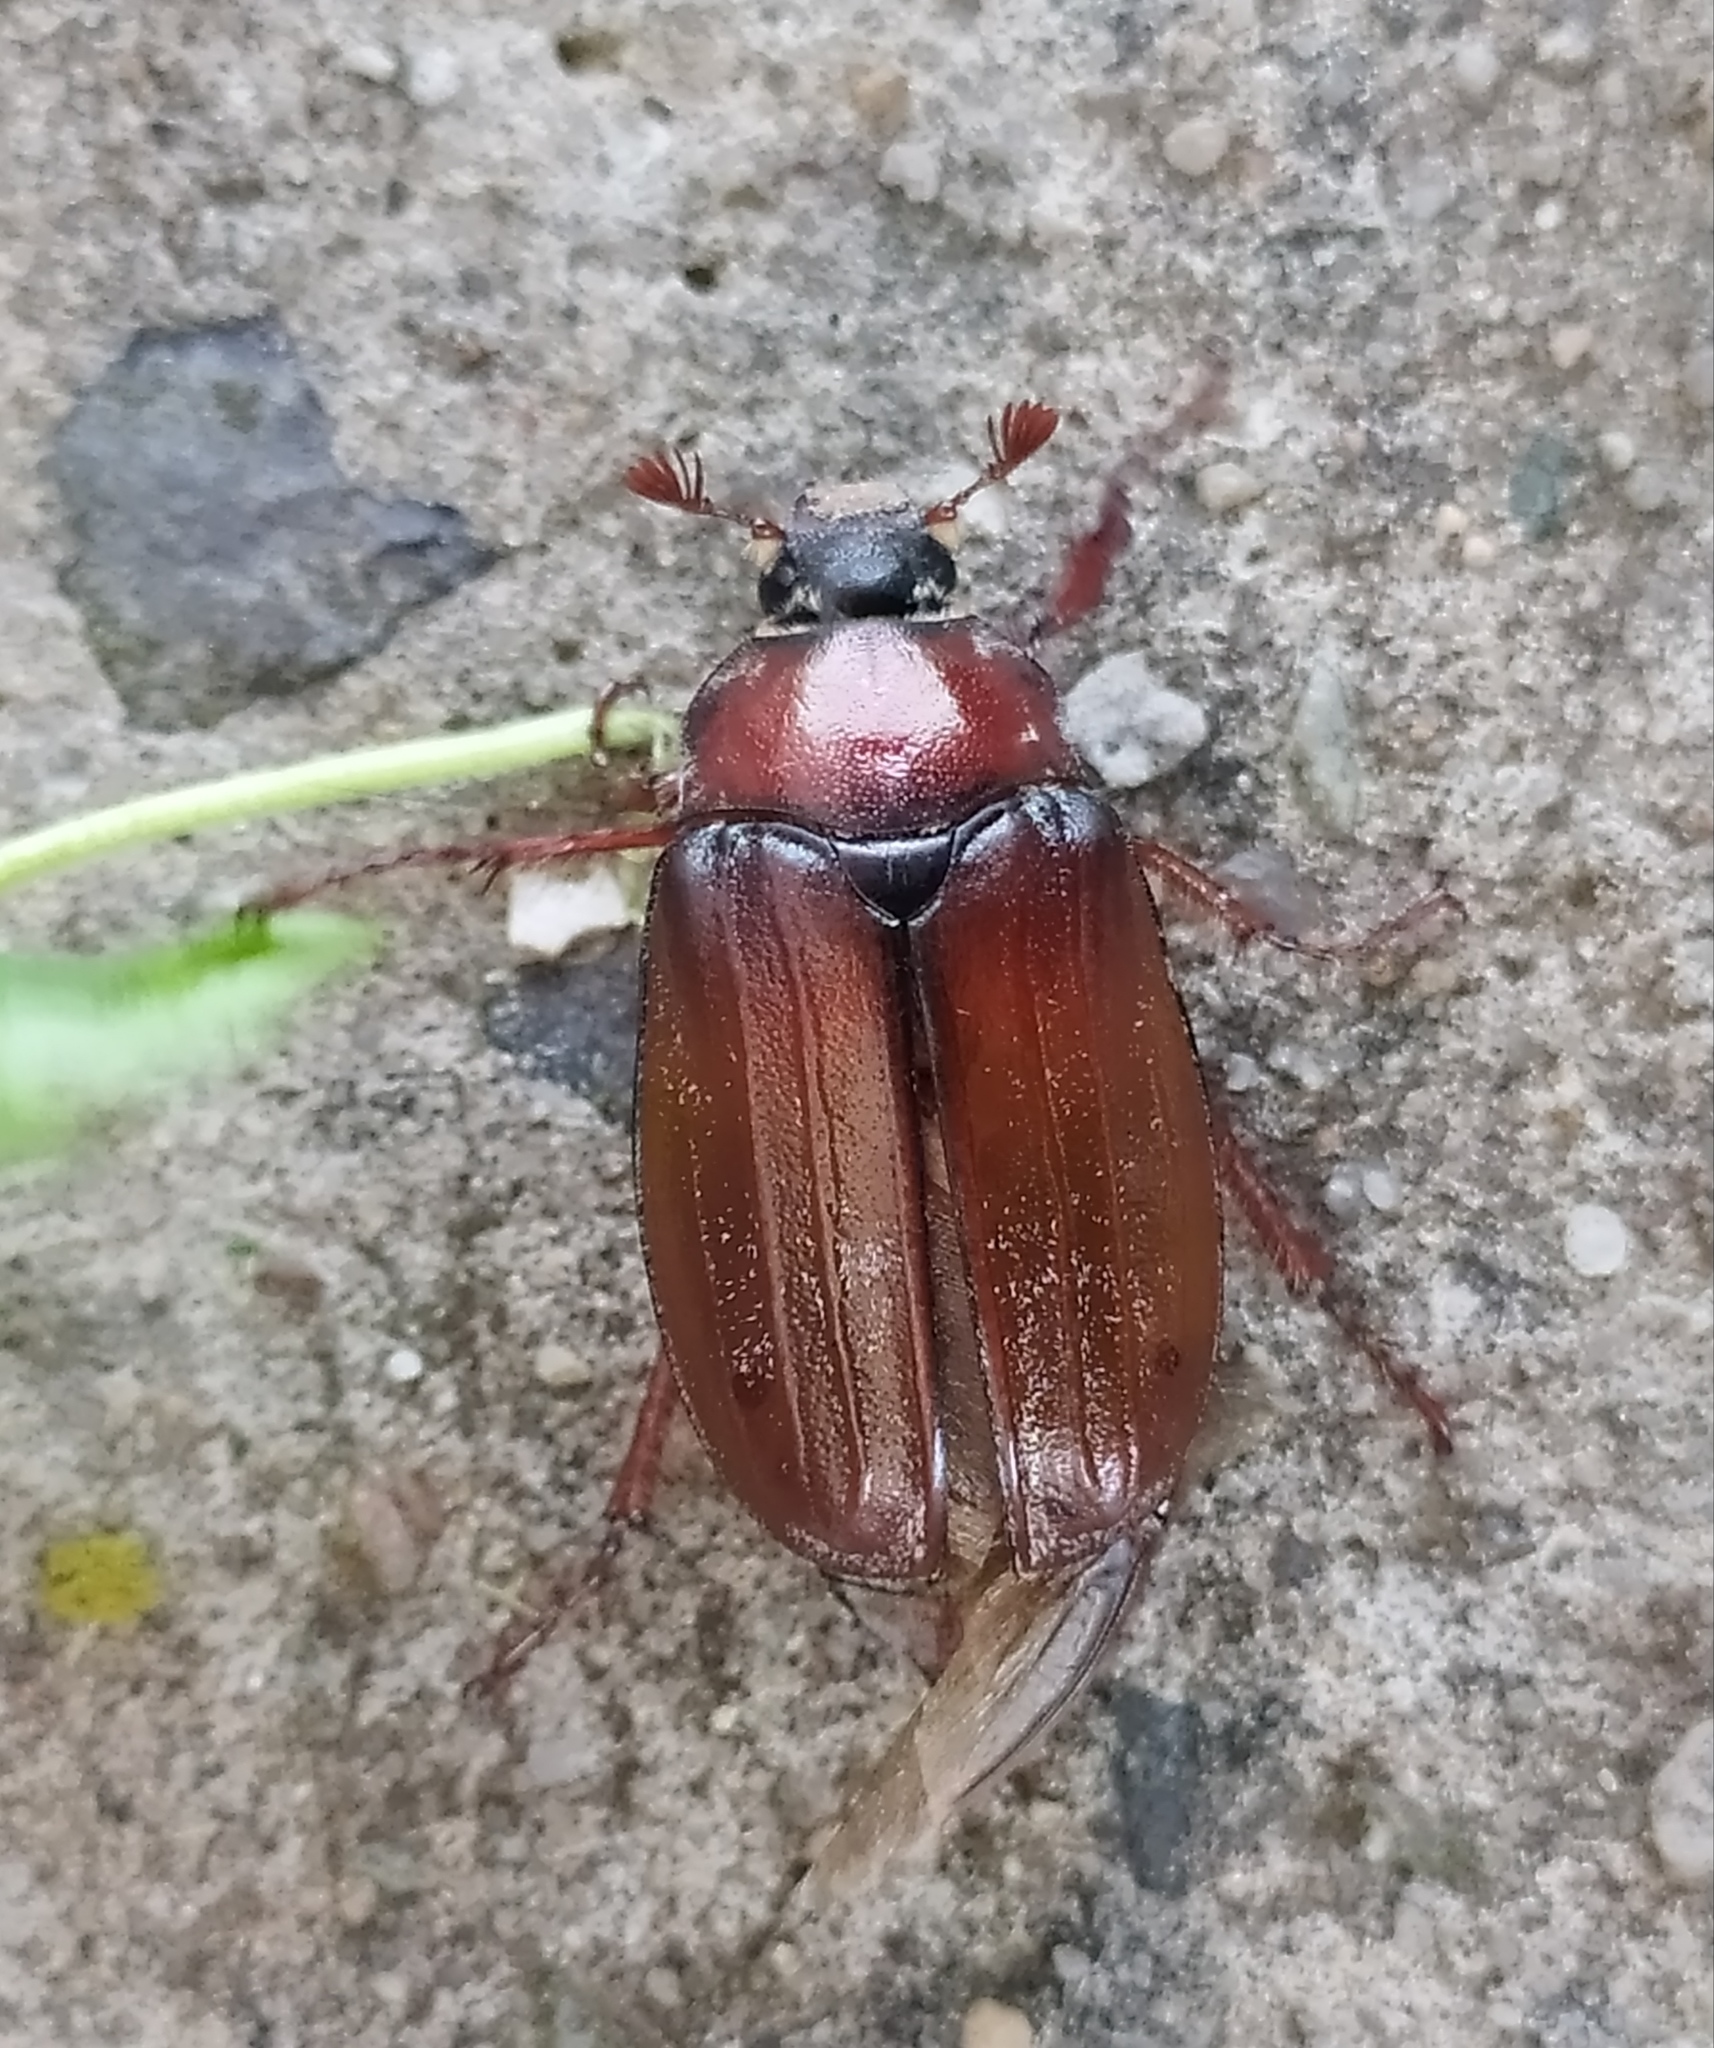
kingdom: Animalia
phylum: Arthropoda
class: Insecta
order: Coleoptera
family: Scarabaeidae
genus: Melolontha
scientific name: Melolontha hippocastani
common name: Chestnut cockchafer
